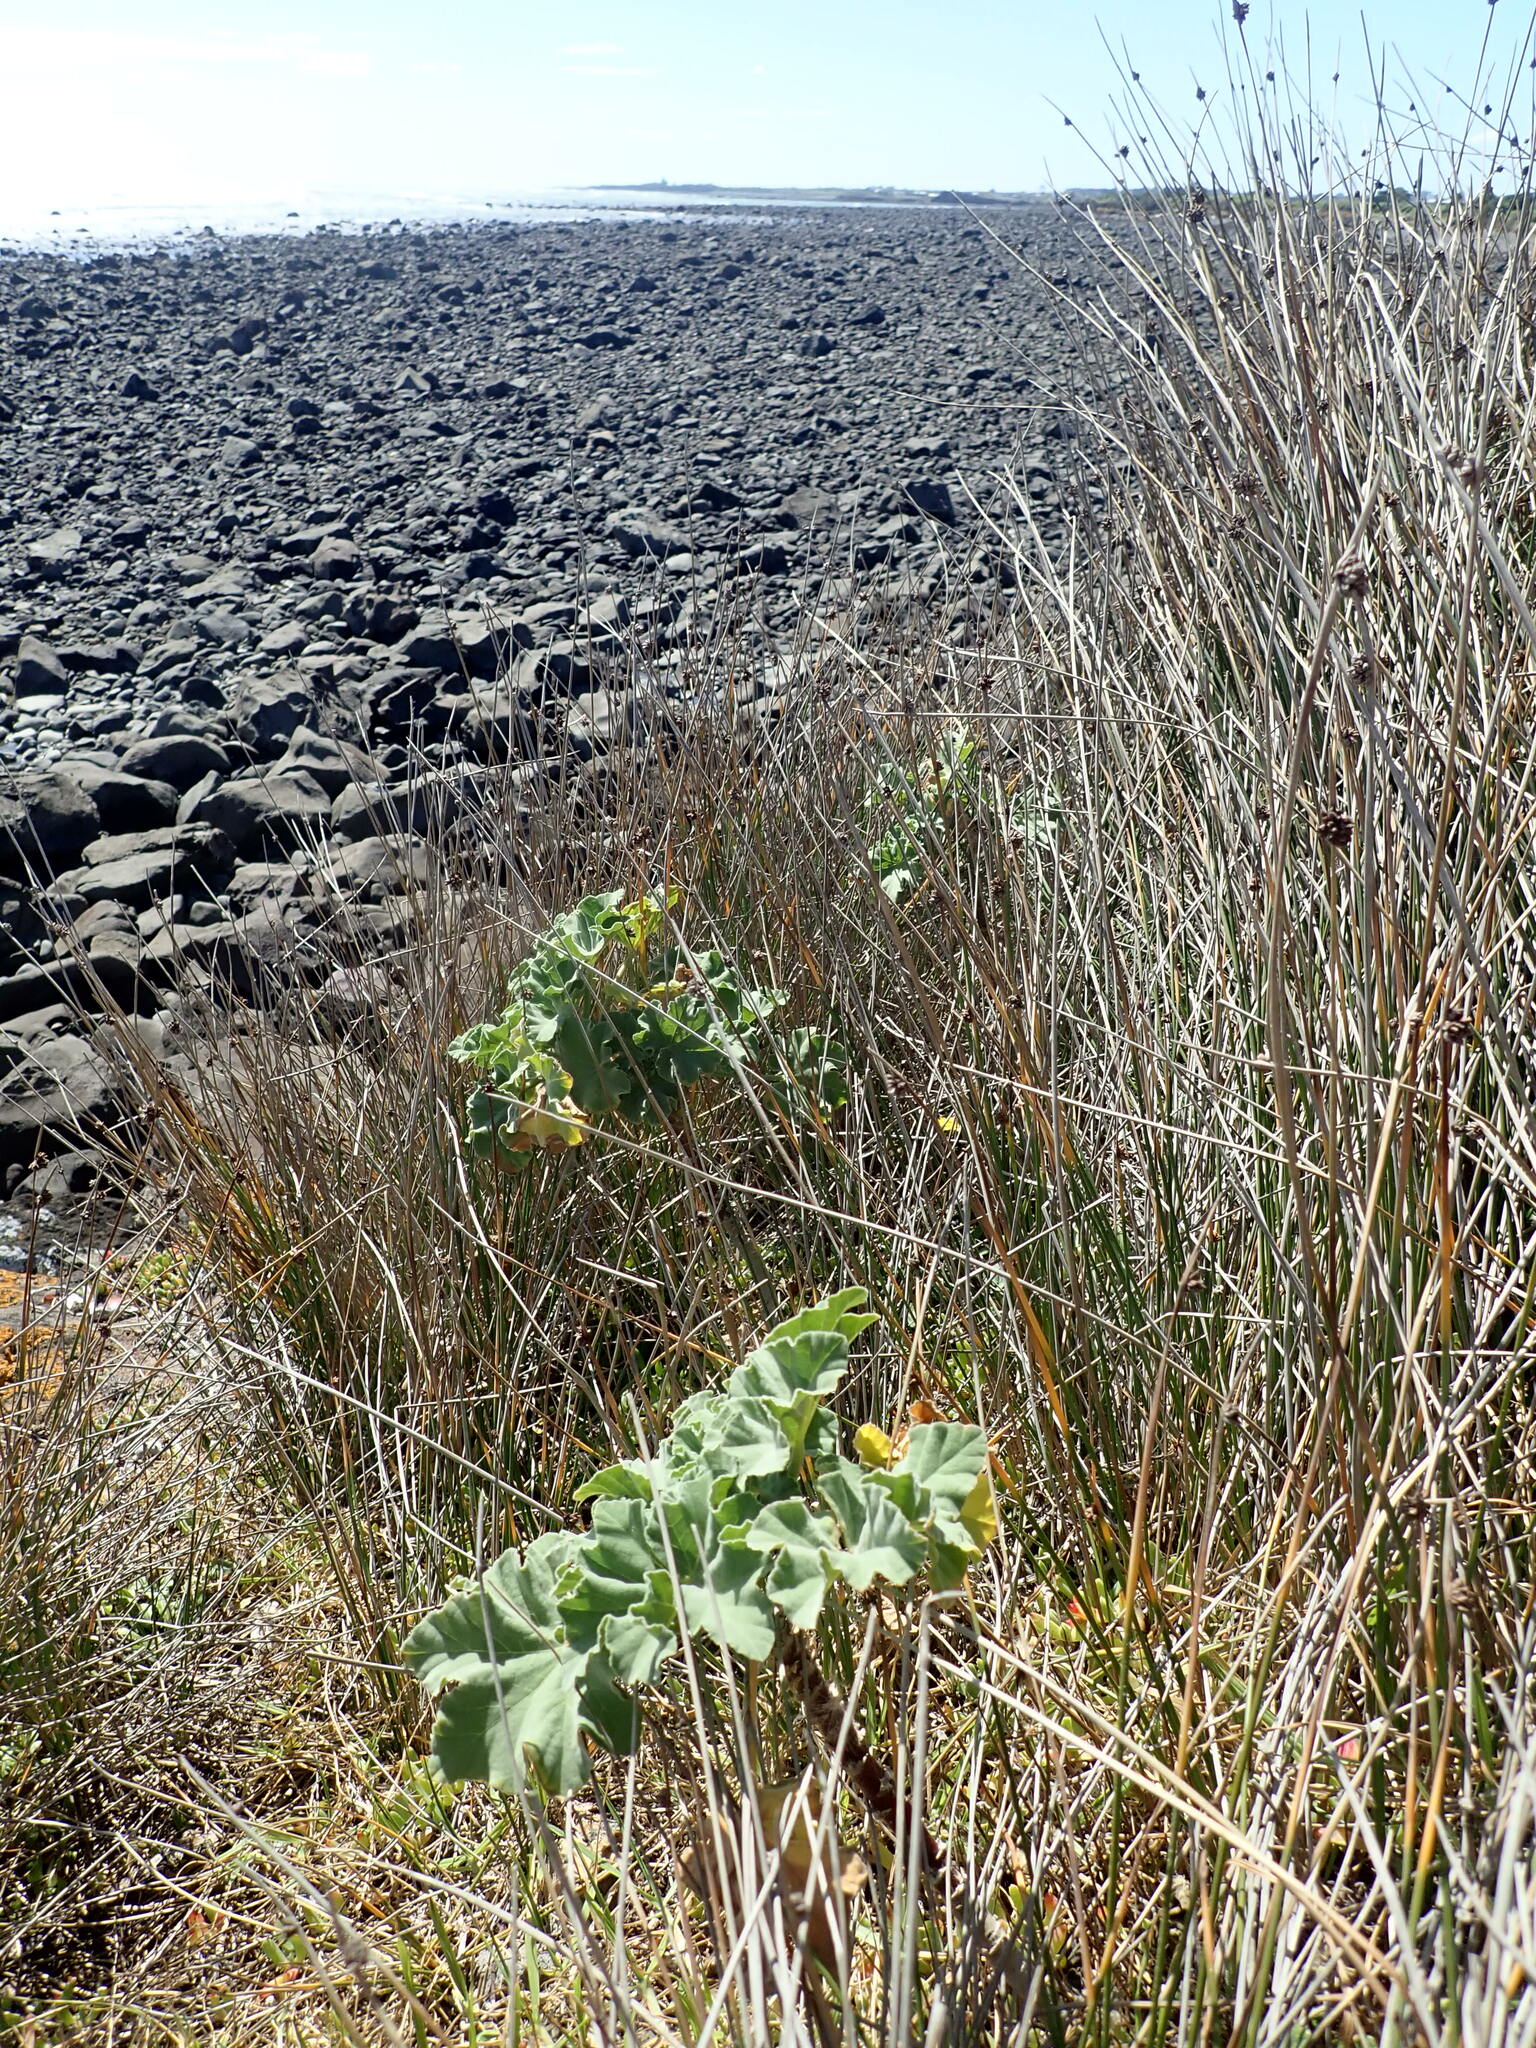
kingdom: Plantae
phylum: Tracheophyta
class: Magnoliopsida
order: Malvales
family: Malvaceae
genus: Malva
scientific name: Malva arborea
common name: Tree mallow
